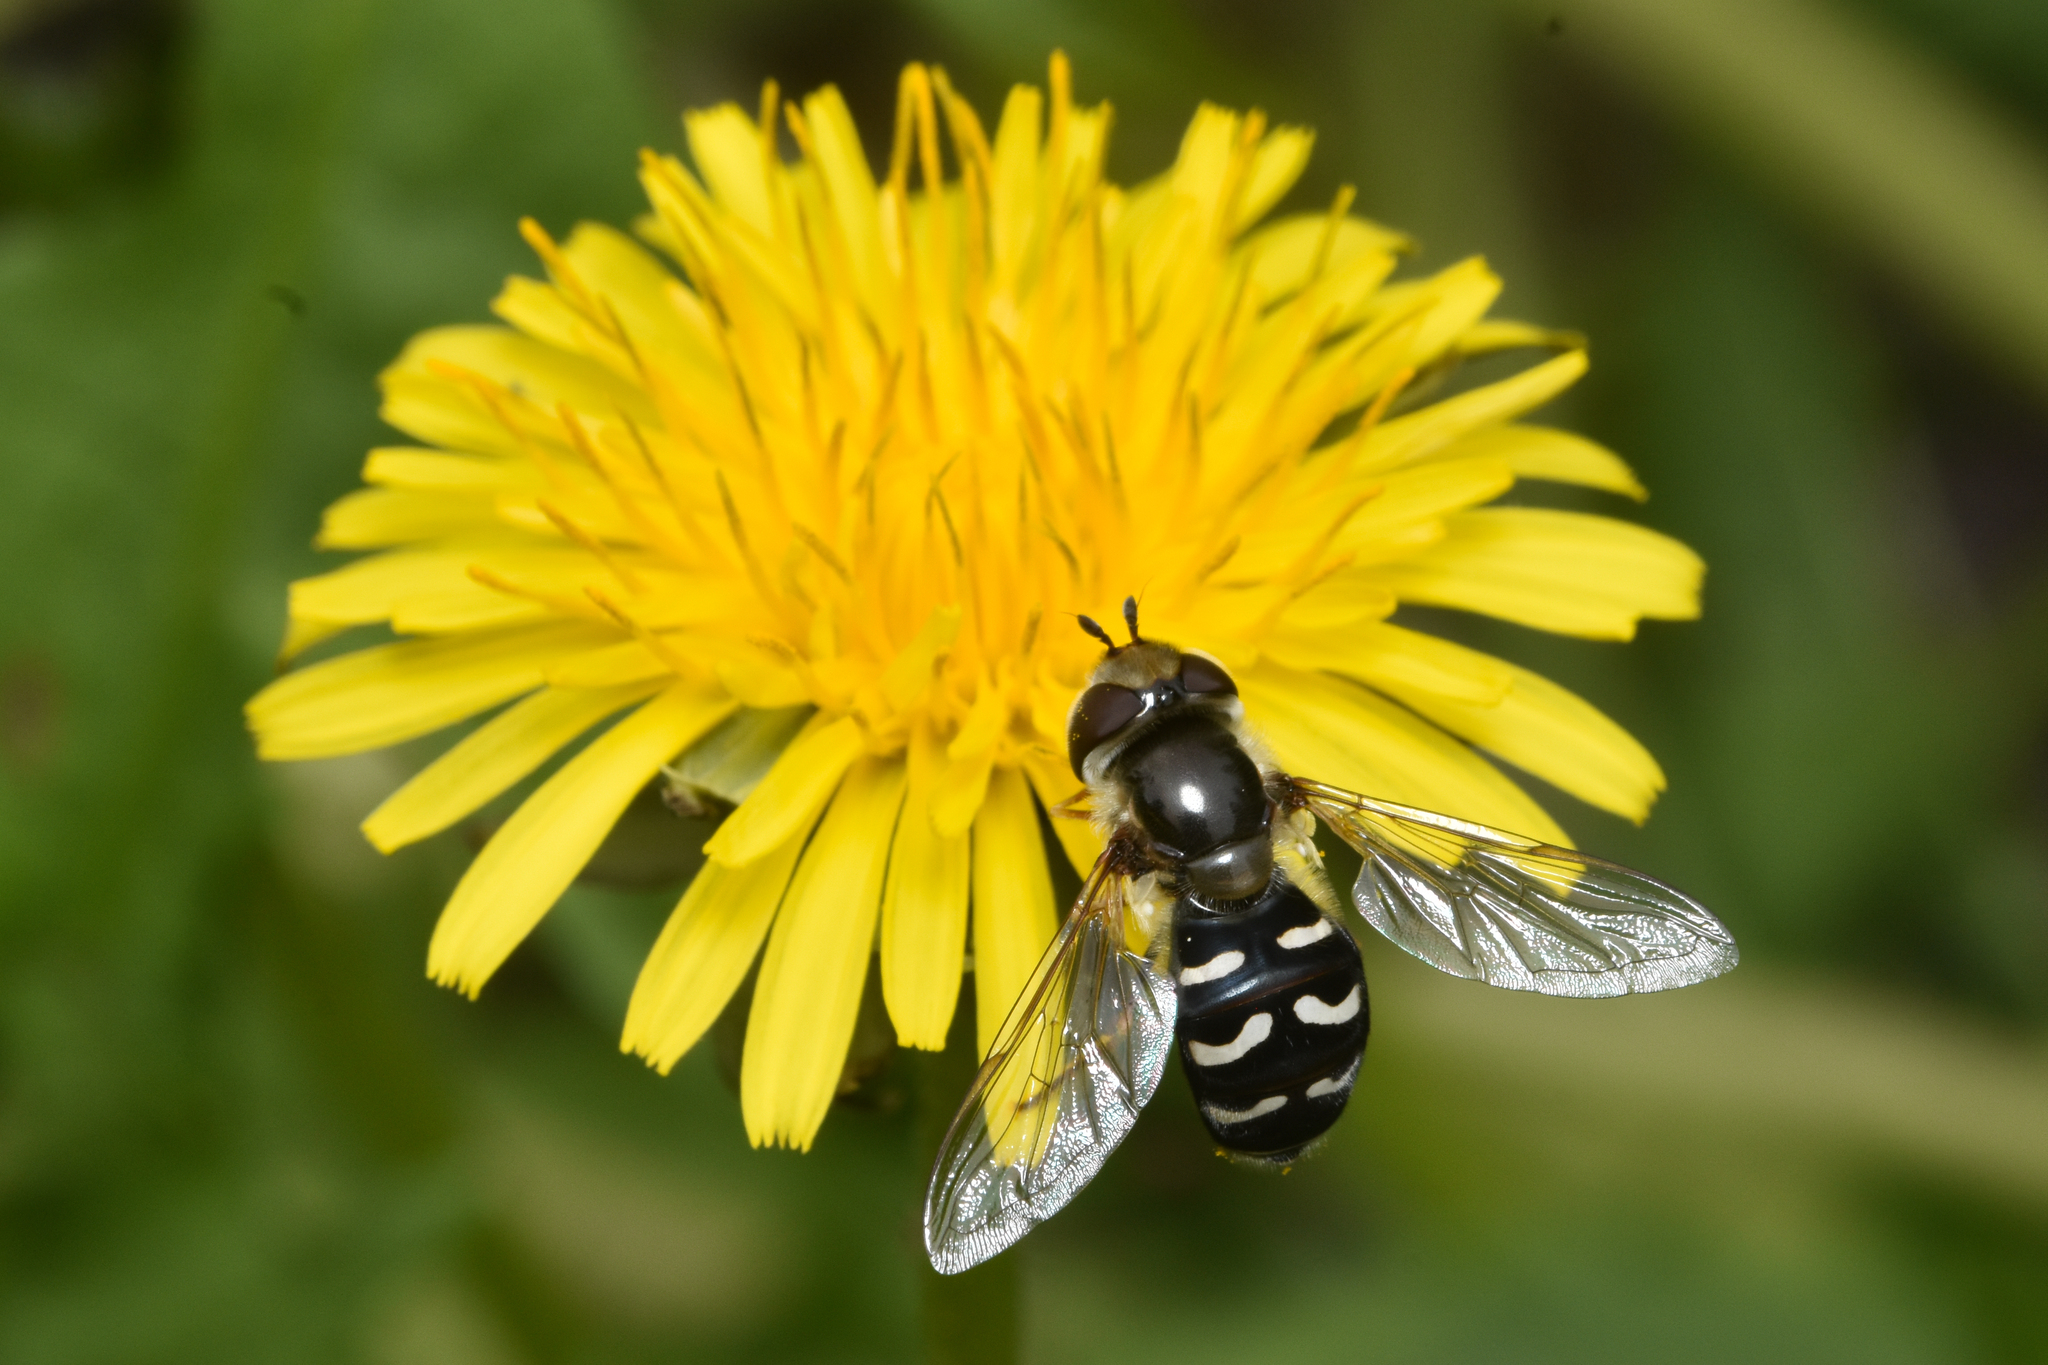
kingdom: Animalia
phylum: Arthropoda
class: Insecta
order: Diptera
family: Syrphidae
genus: Scaeva
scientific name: Scaeva affinis
